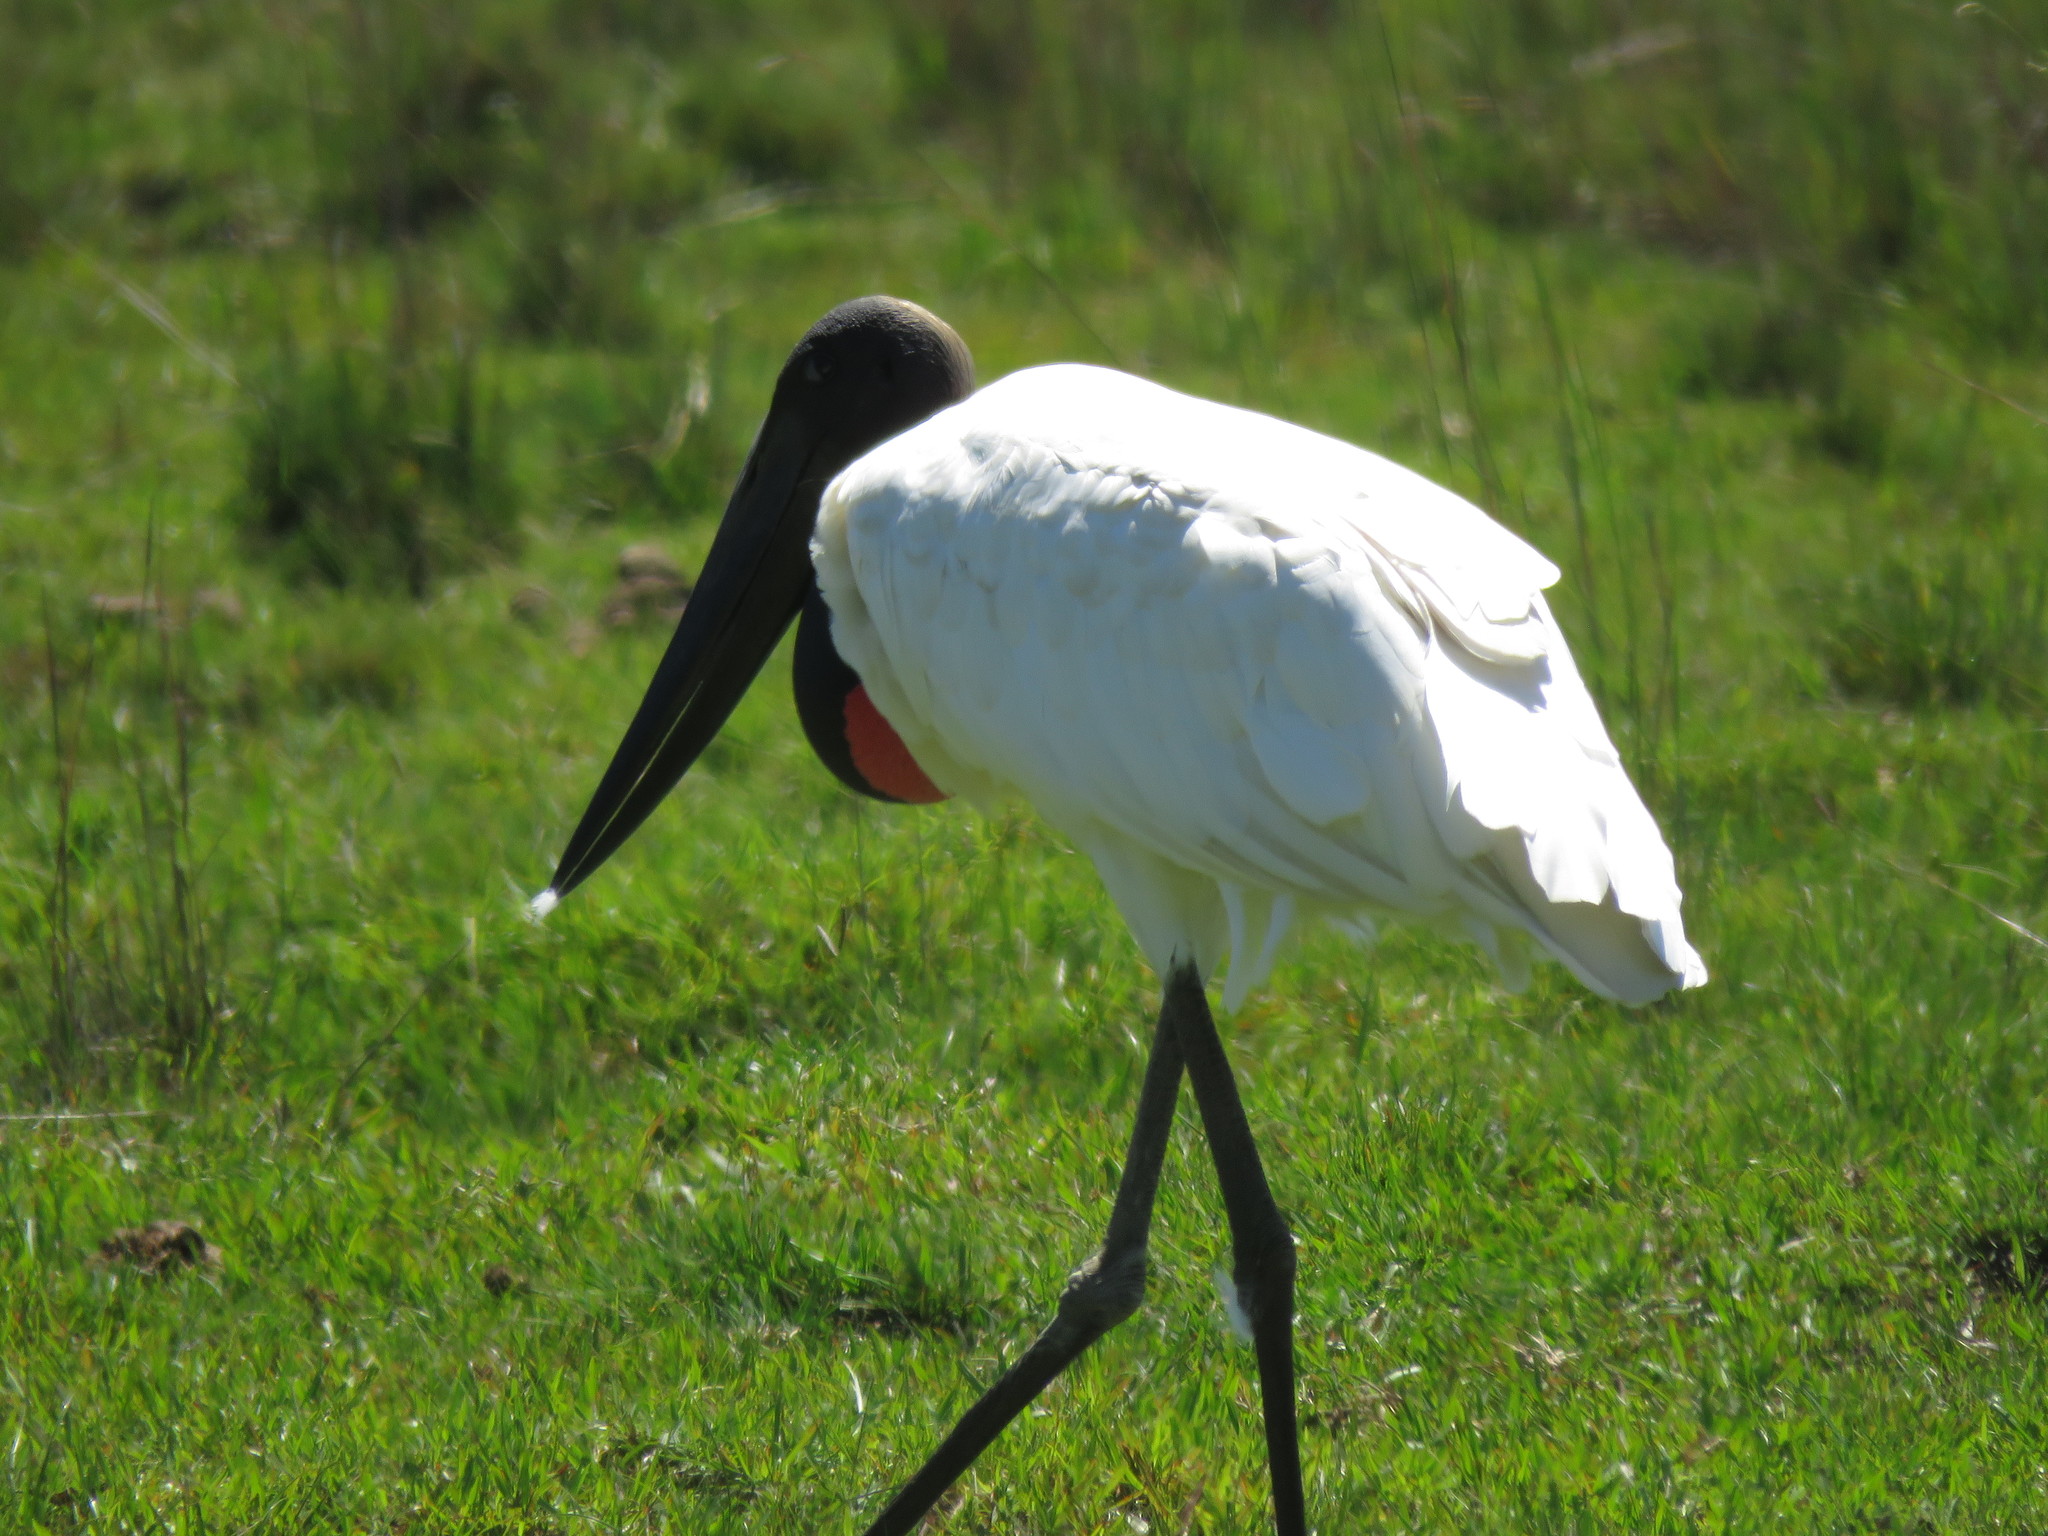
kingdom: Animalia
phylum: Chordata
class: Aves
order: Ciconiiformes
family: Ciconiidae
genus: Jabiru
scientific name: Jabiru mycteria
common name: Jabiru
